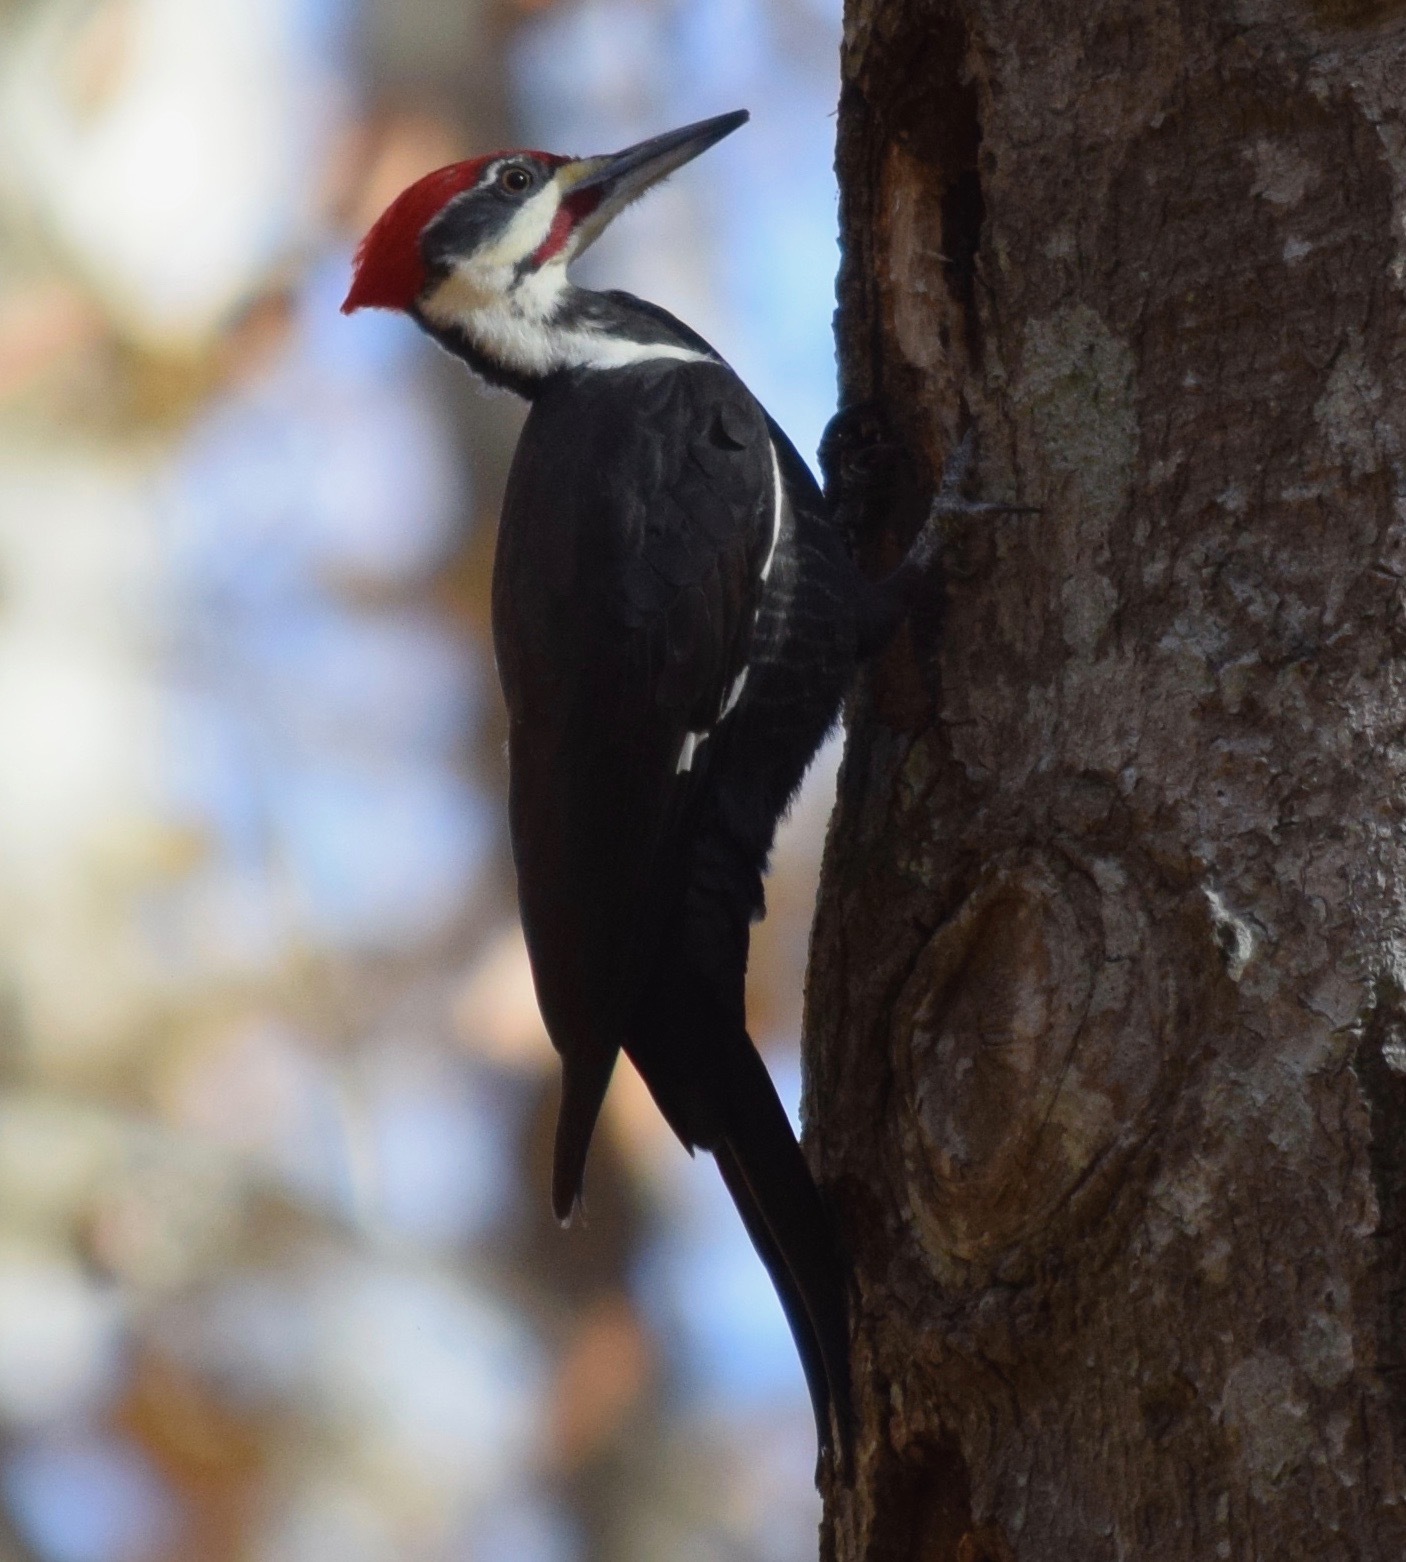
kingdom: Animalia
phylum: Chordata
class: Aves
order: Piciformes
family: Picidae
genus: Dryocopus
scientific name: Dryocopus pileatus
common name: Pileated woodpecker
